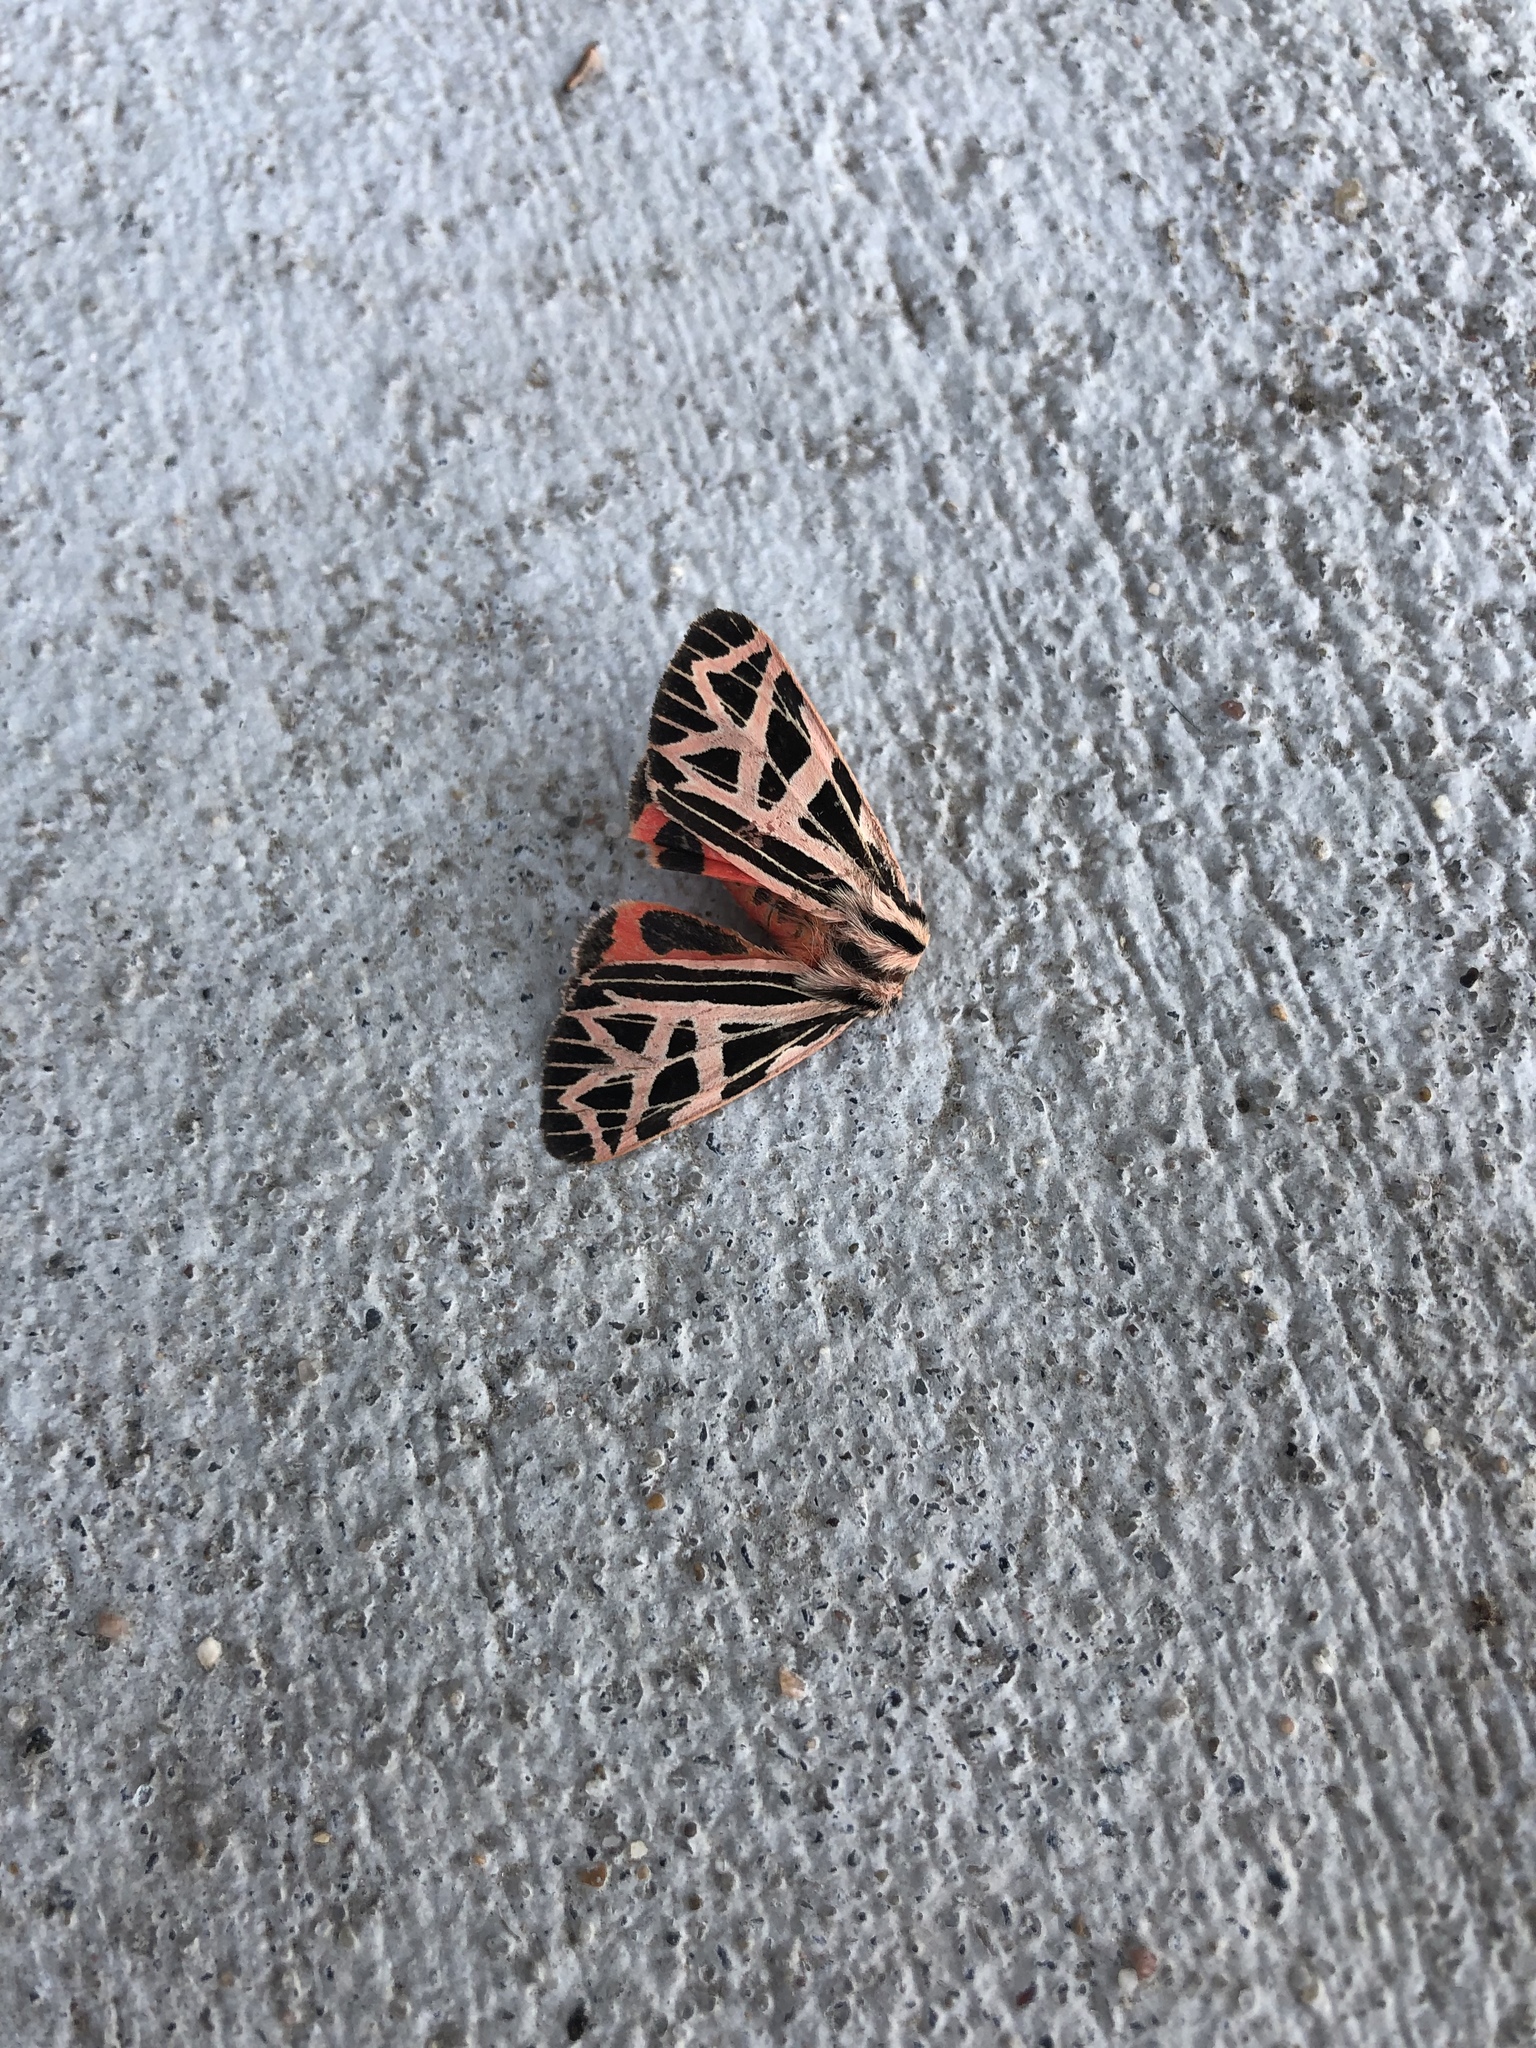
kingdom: Animalia
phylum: Arthropoda
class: Insecta
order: Lepidoptera
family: Erebidae
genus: Apantesis
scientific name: Apantesis
